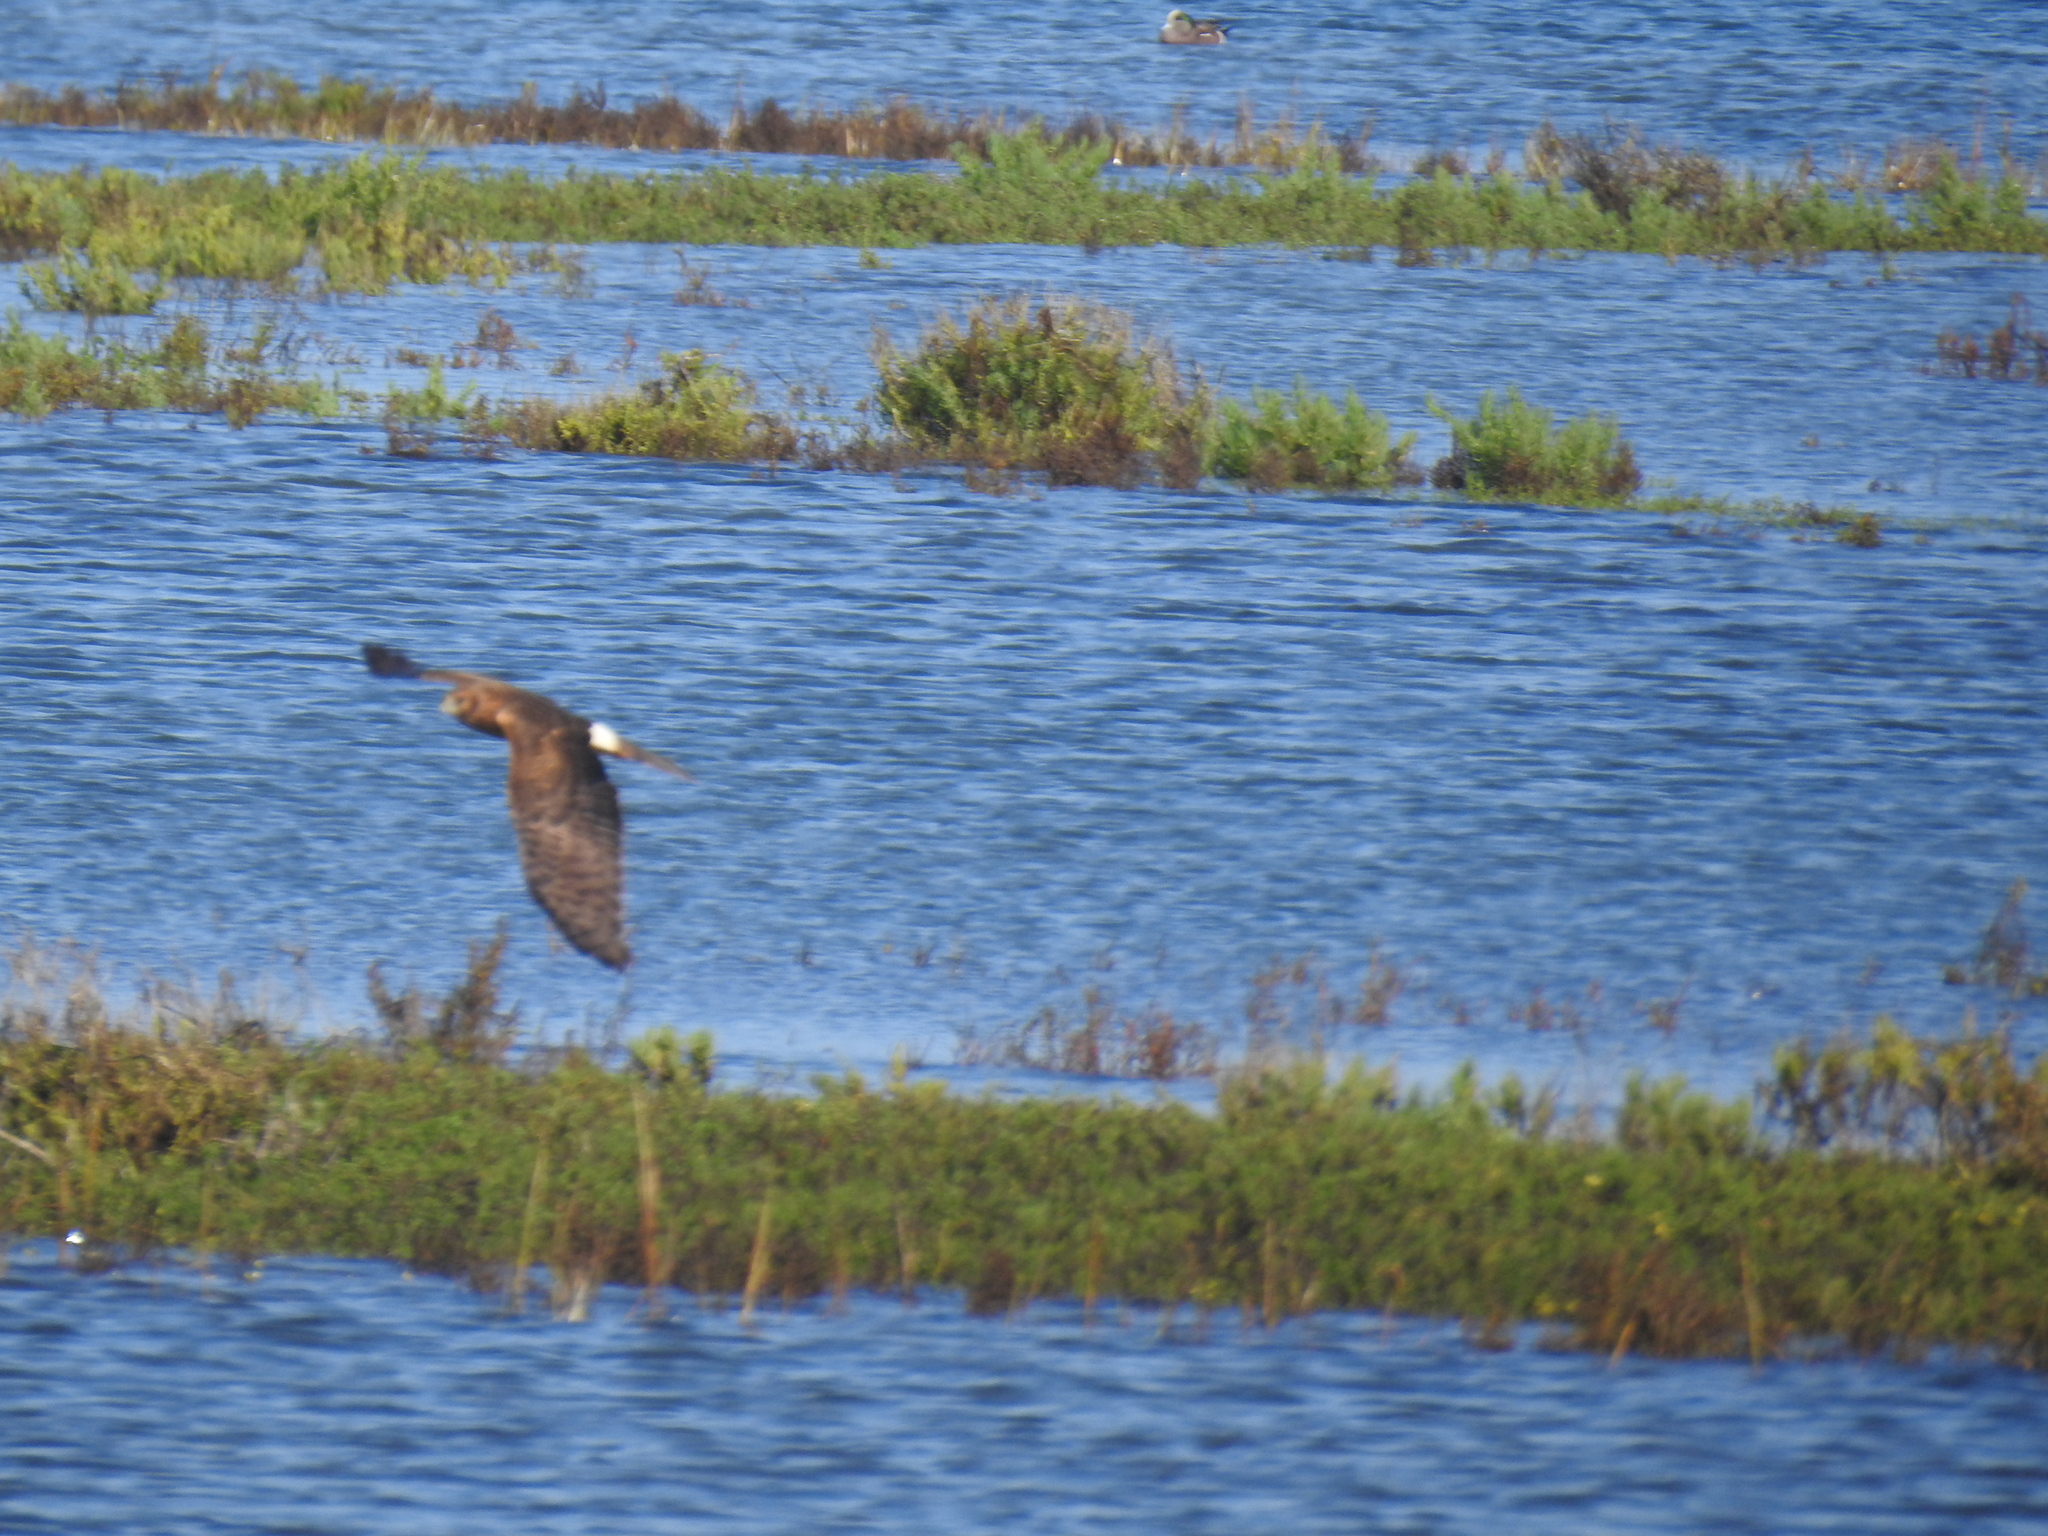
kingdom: Animalia
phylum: Chordata
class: Aves
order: Accipitriformes
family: Accipitridae
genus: Circus
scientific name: Circus cyaneus
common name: Hen harrier
